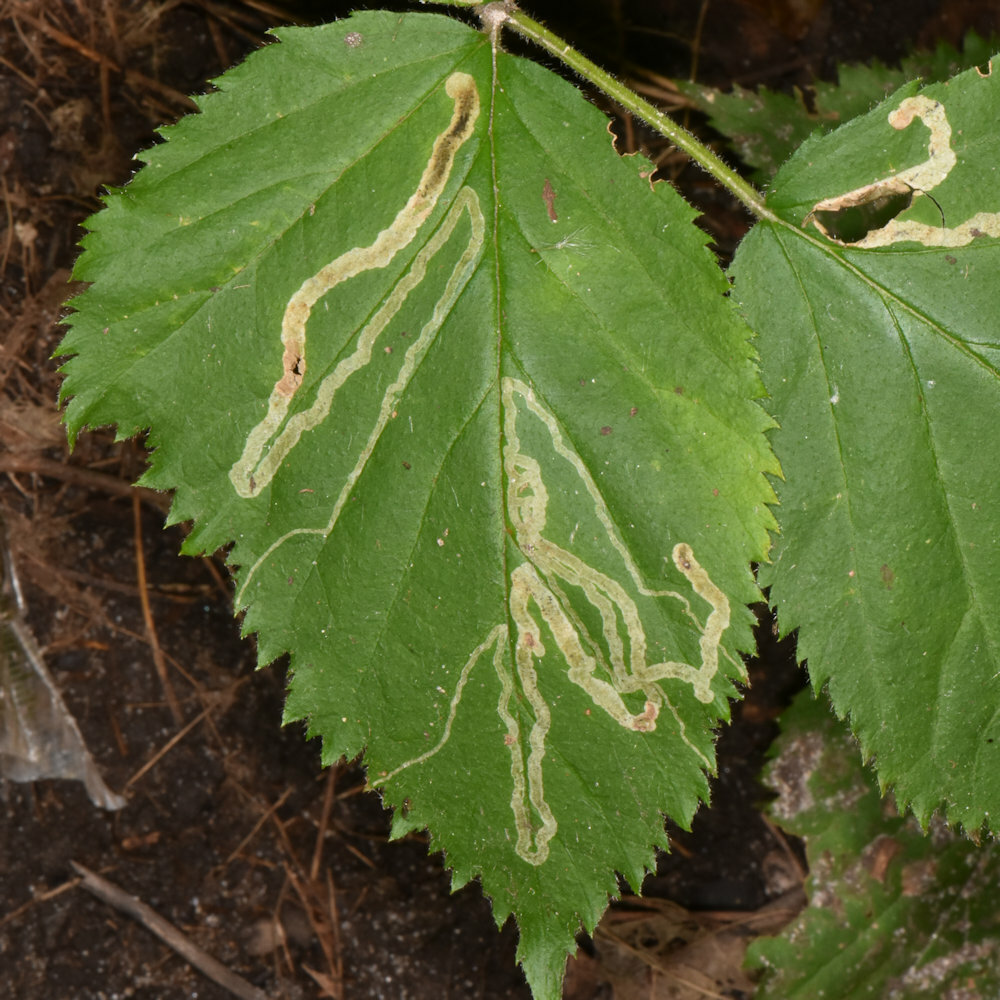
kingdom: Animalia
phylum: Arthropoda
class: Insecta
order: Diptera
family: Agromyzidae
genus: Agromyza
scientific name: Agromyza vockerothi
